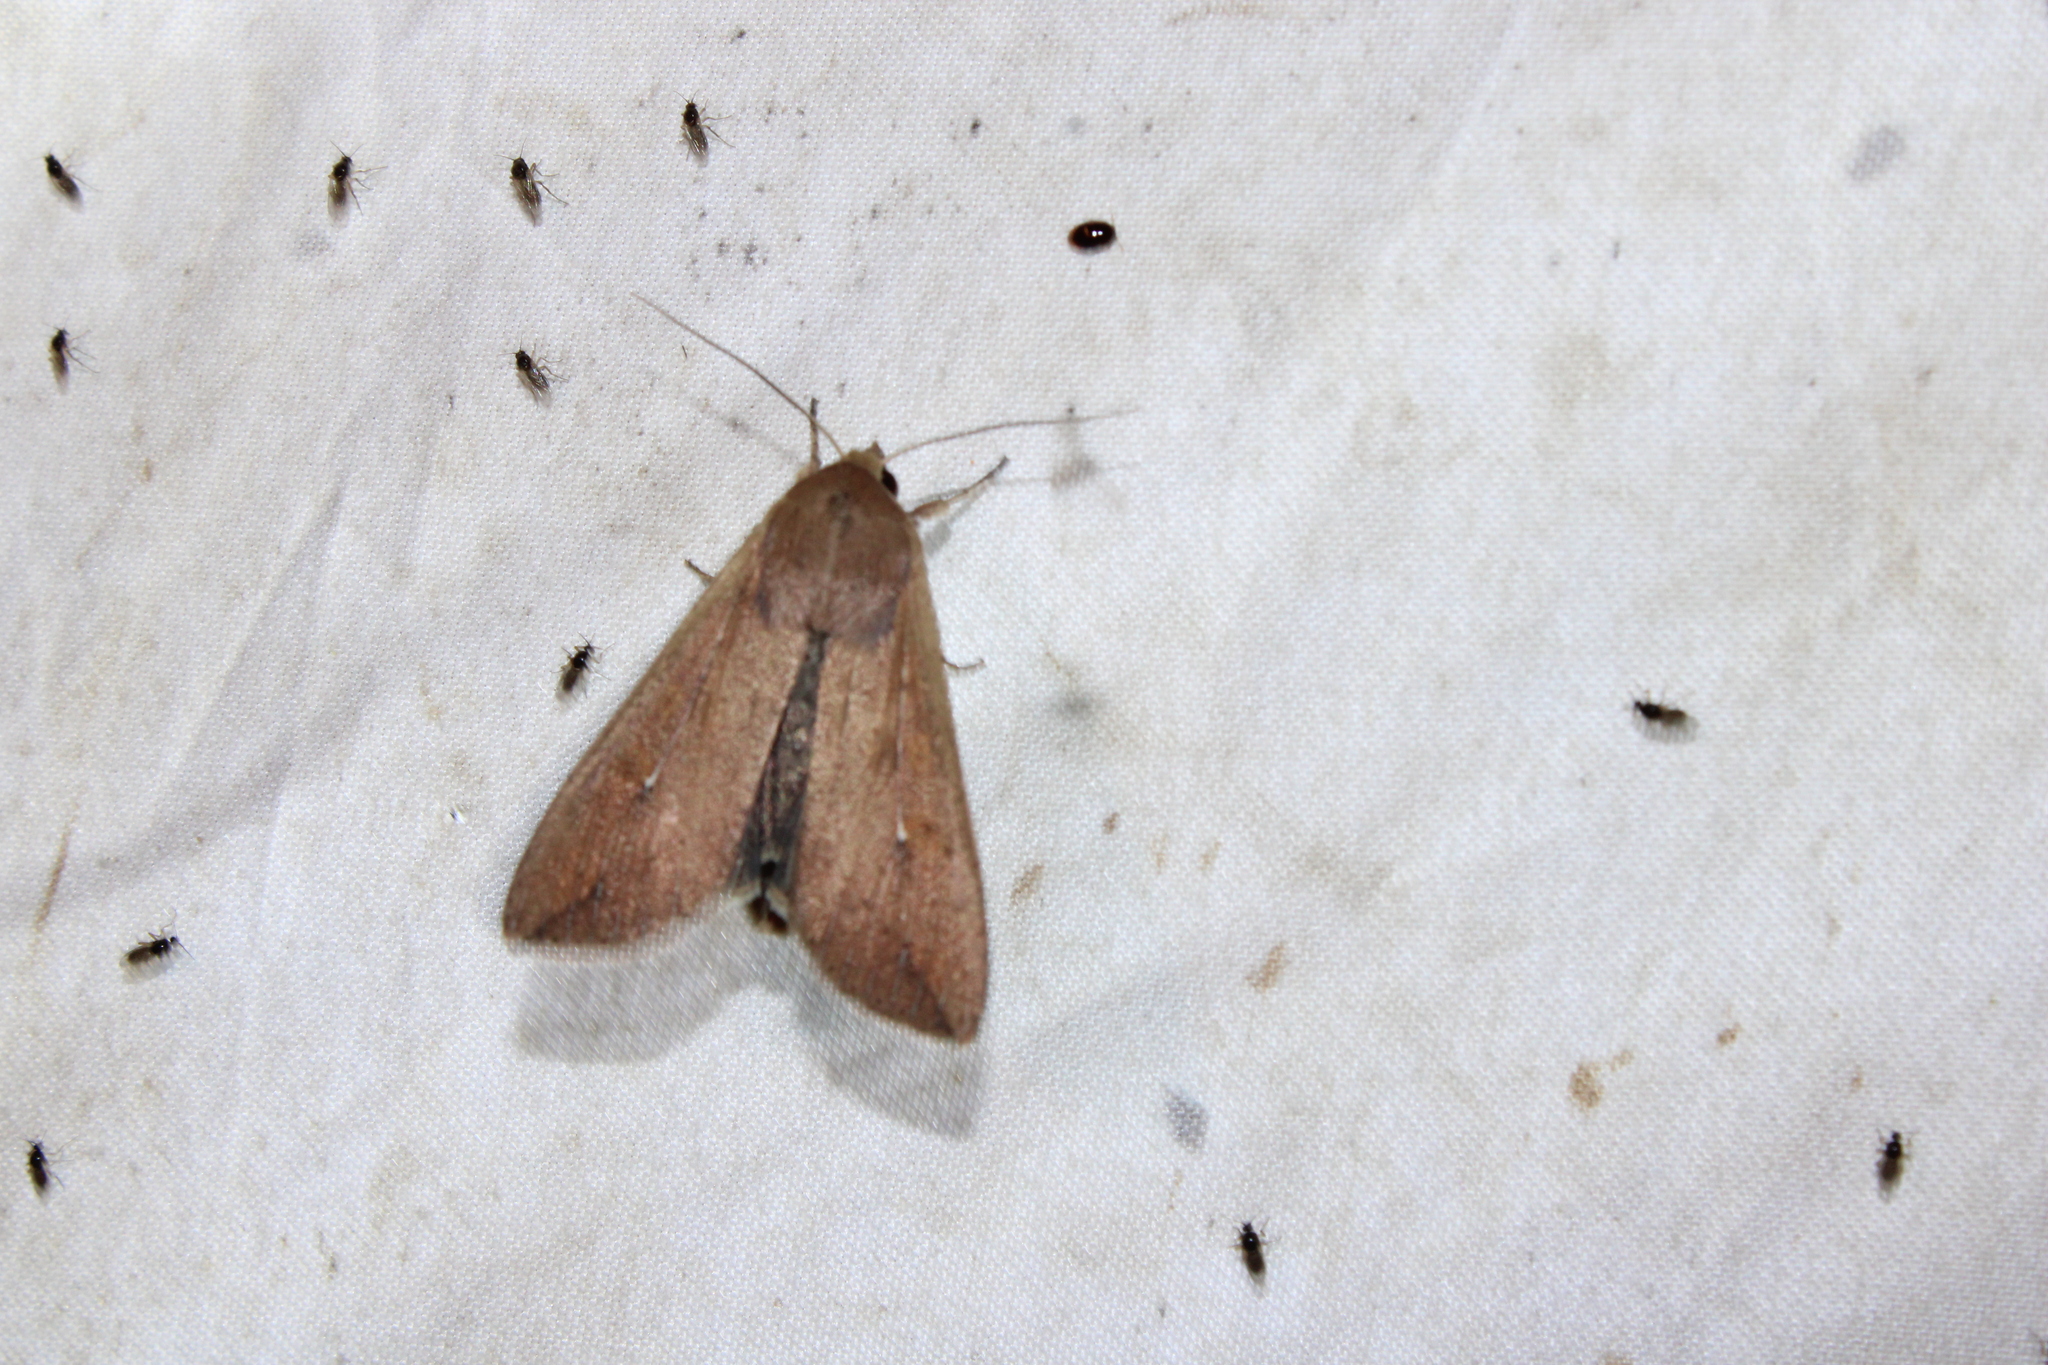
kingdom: Animalia
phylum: Arthropoda
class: Insecta
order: Lepidoptera
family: Noctuidae
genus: Mythimna
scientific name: Mythimna unipuncta
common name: White-speck
